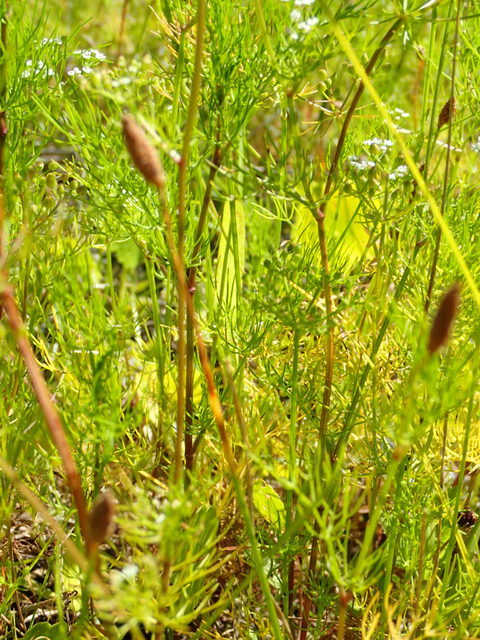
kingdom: Plantae
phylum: Tracheophyta
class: Magnoliopsida
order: Apiales
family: Apiaceae
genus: Ptilimnium
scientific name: Ptilimnium capillaceum
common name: Herbwilliam
